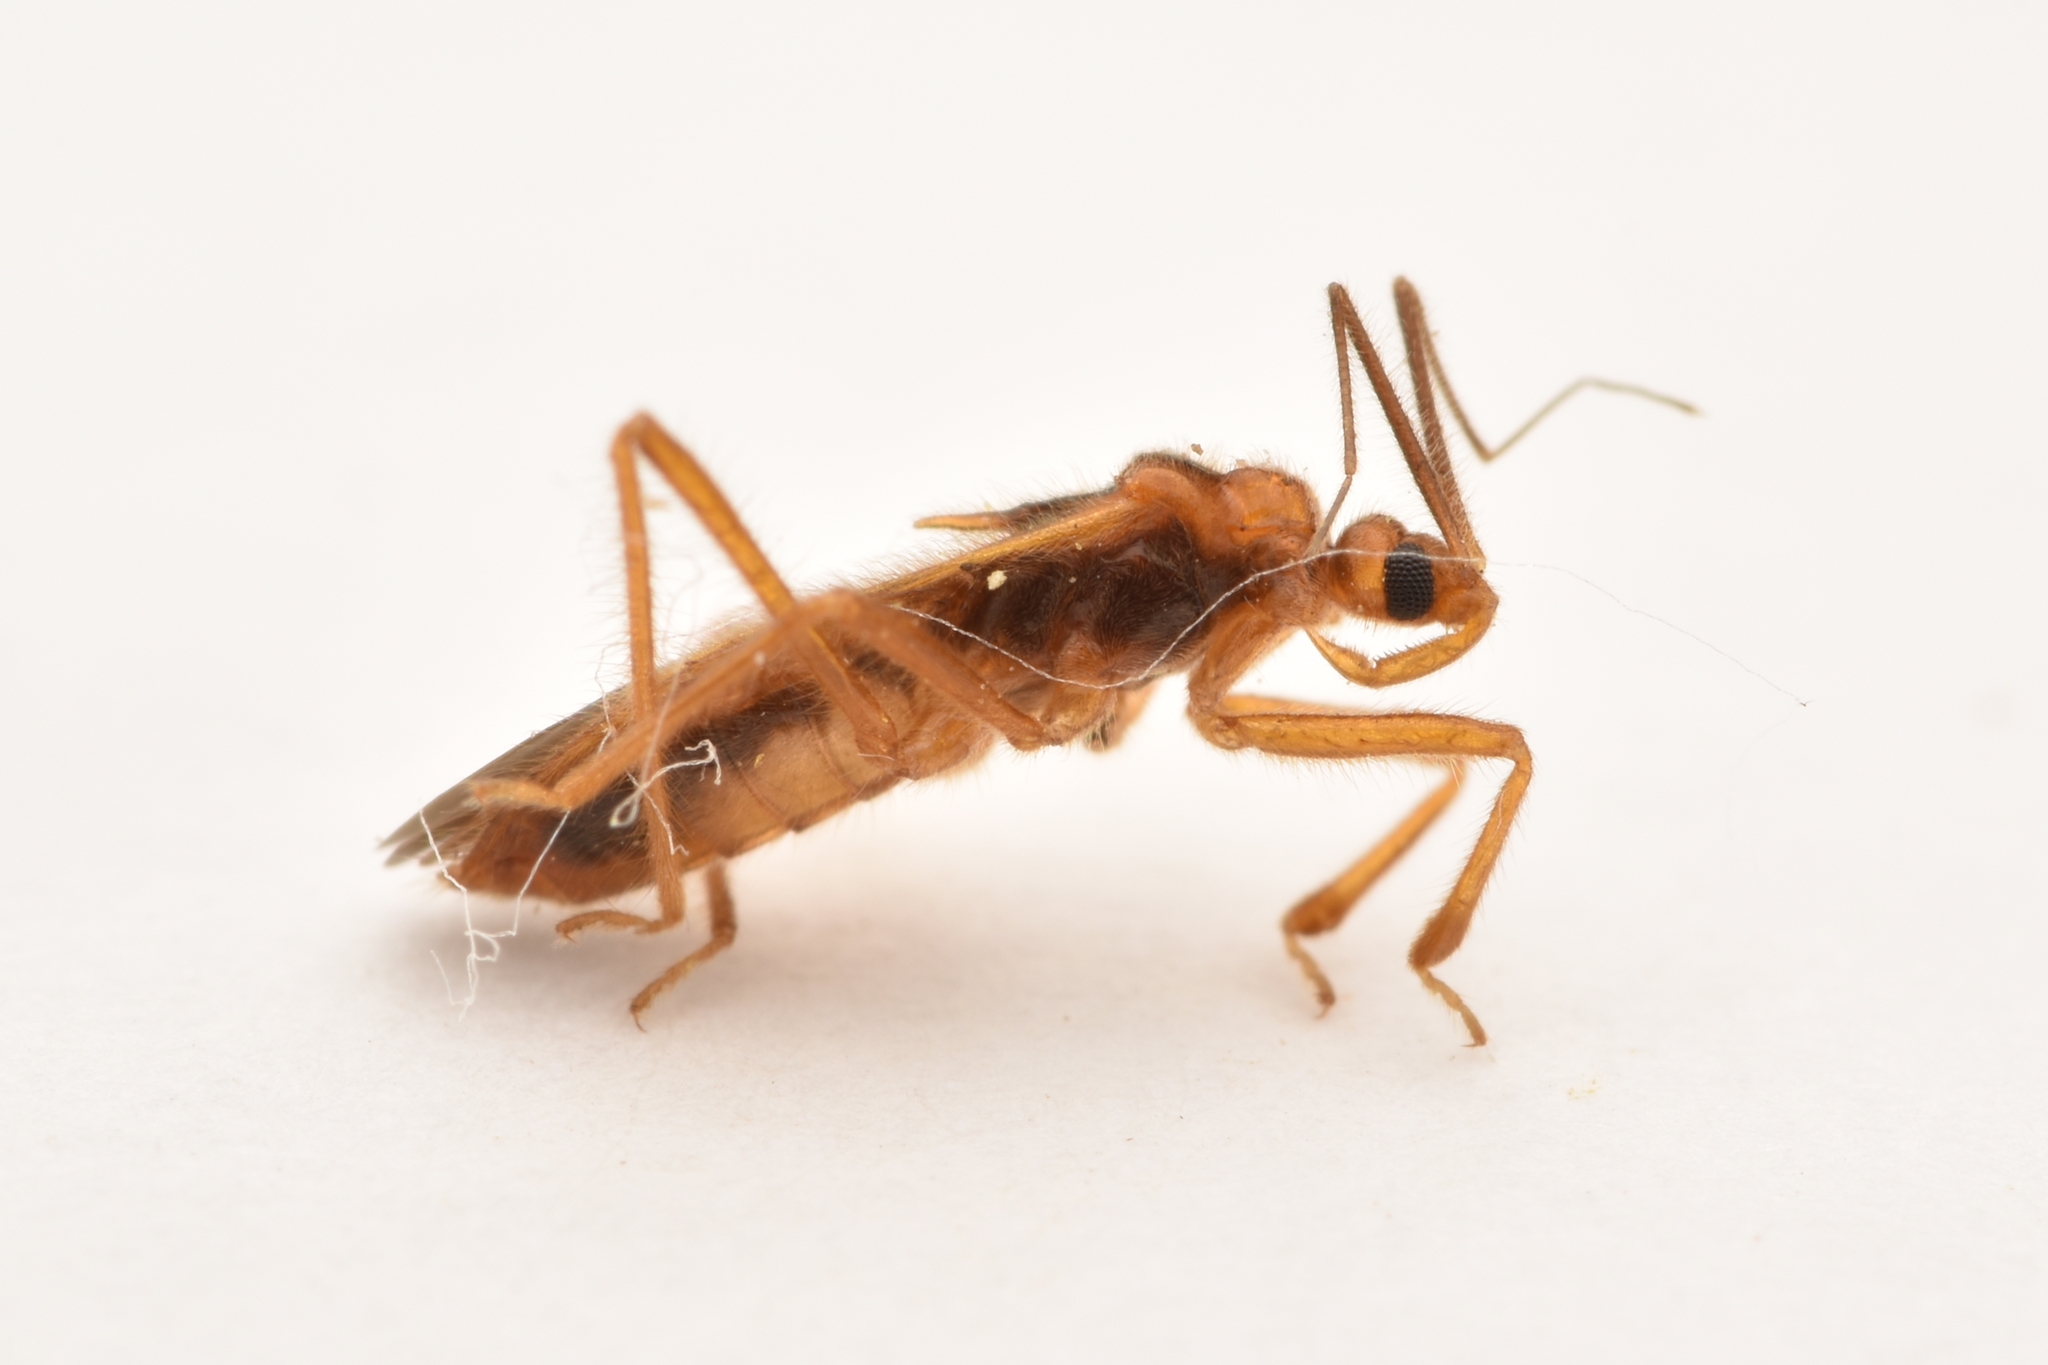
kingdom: Animalia
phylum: Arthropoda
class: Insecta
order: Hemiptera
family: Reduviidae
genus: Oncerotrachelus
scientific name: Oncerotrachelus acuminatus
